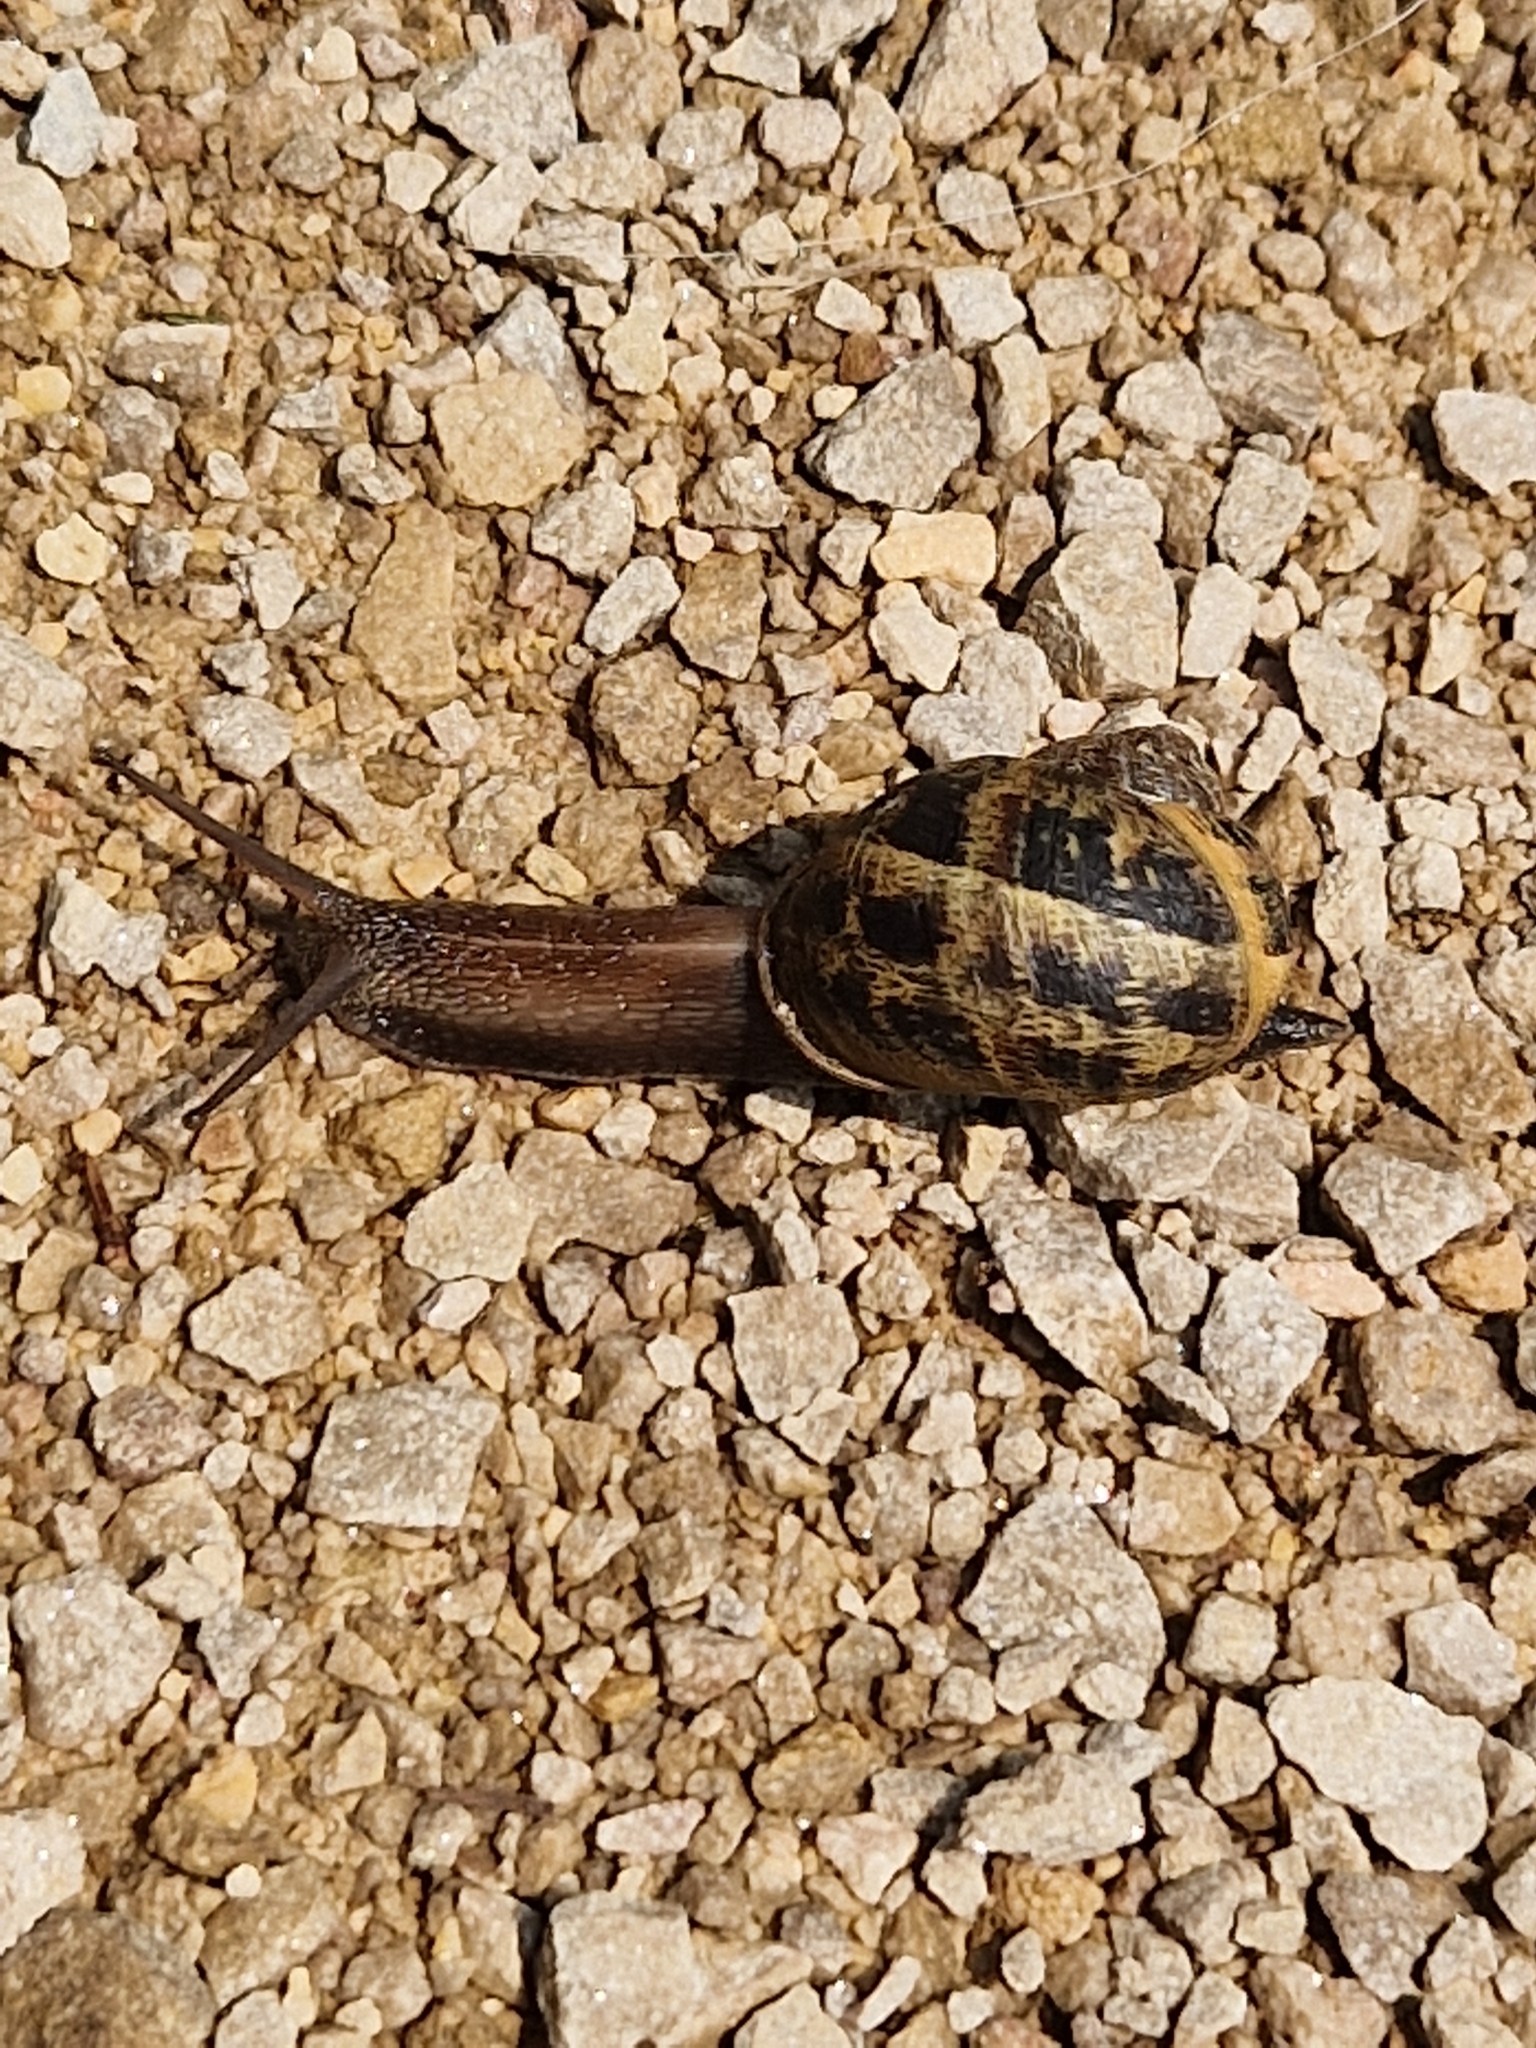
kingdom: Animalia
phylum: Mollusca
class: Gastropoda
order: Stylommatophora
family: Helicidae
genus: Cornu
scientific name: Cornu aspersum
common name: Brown garden snail
